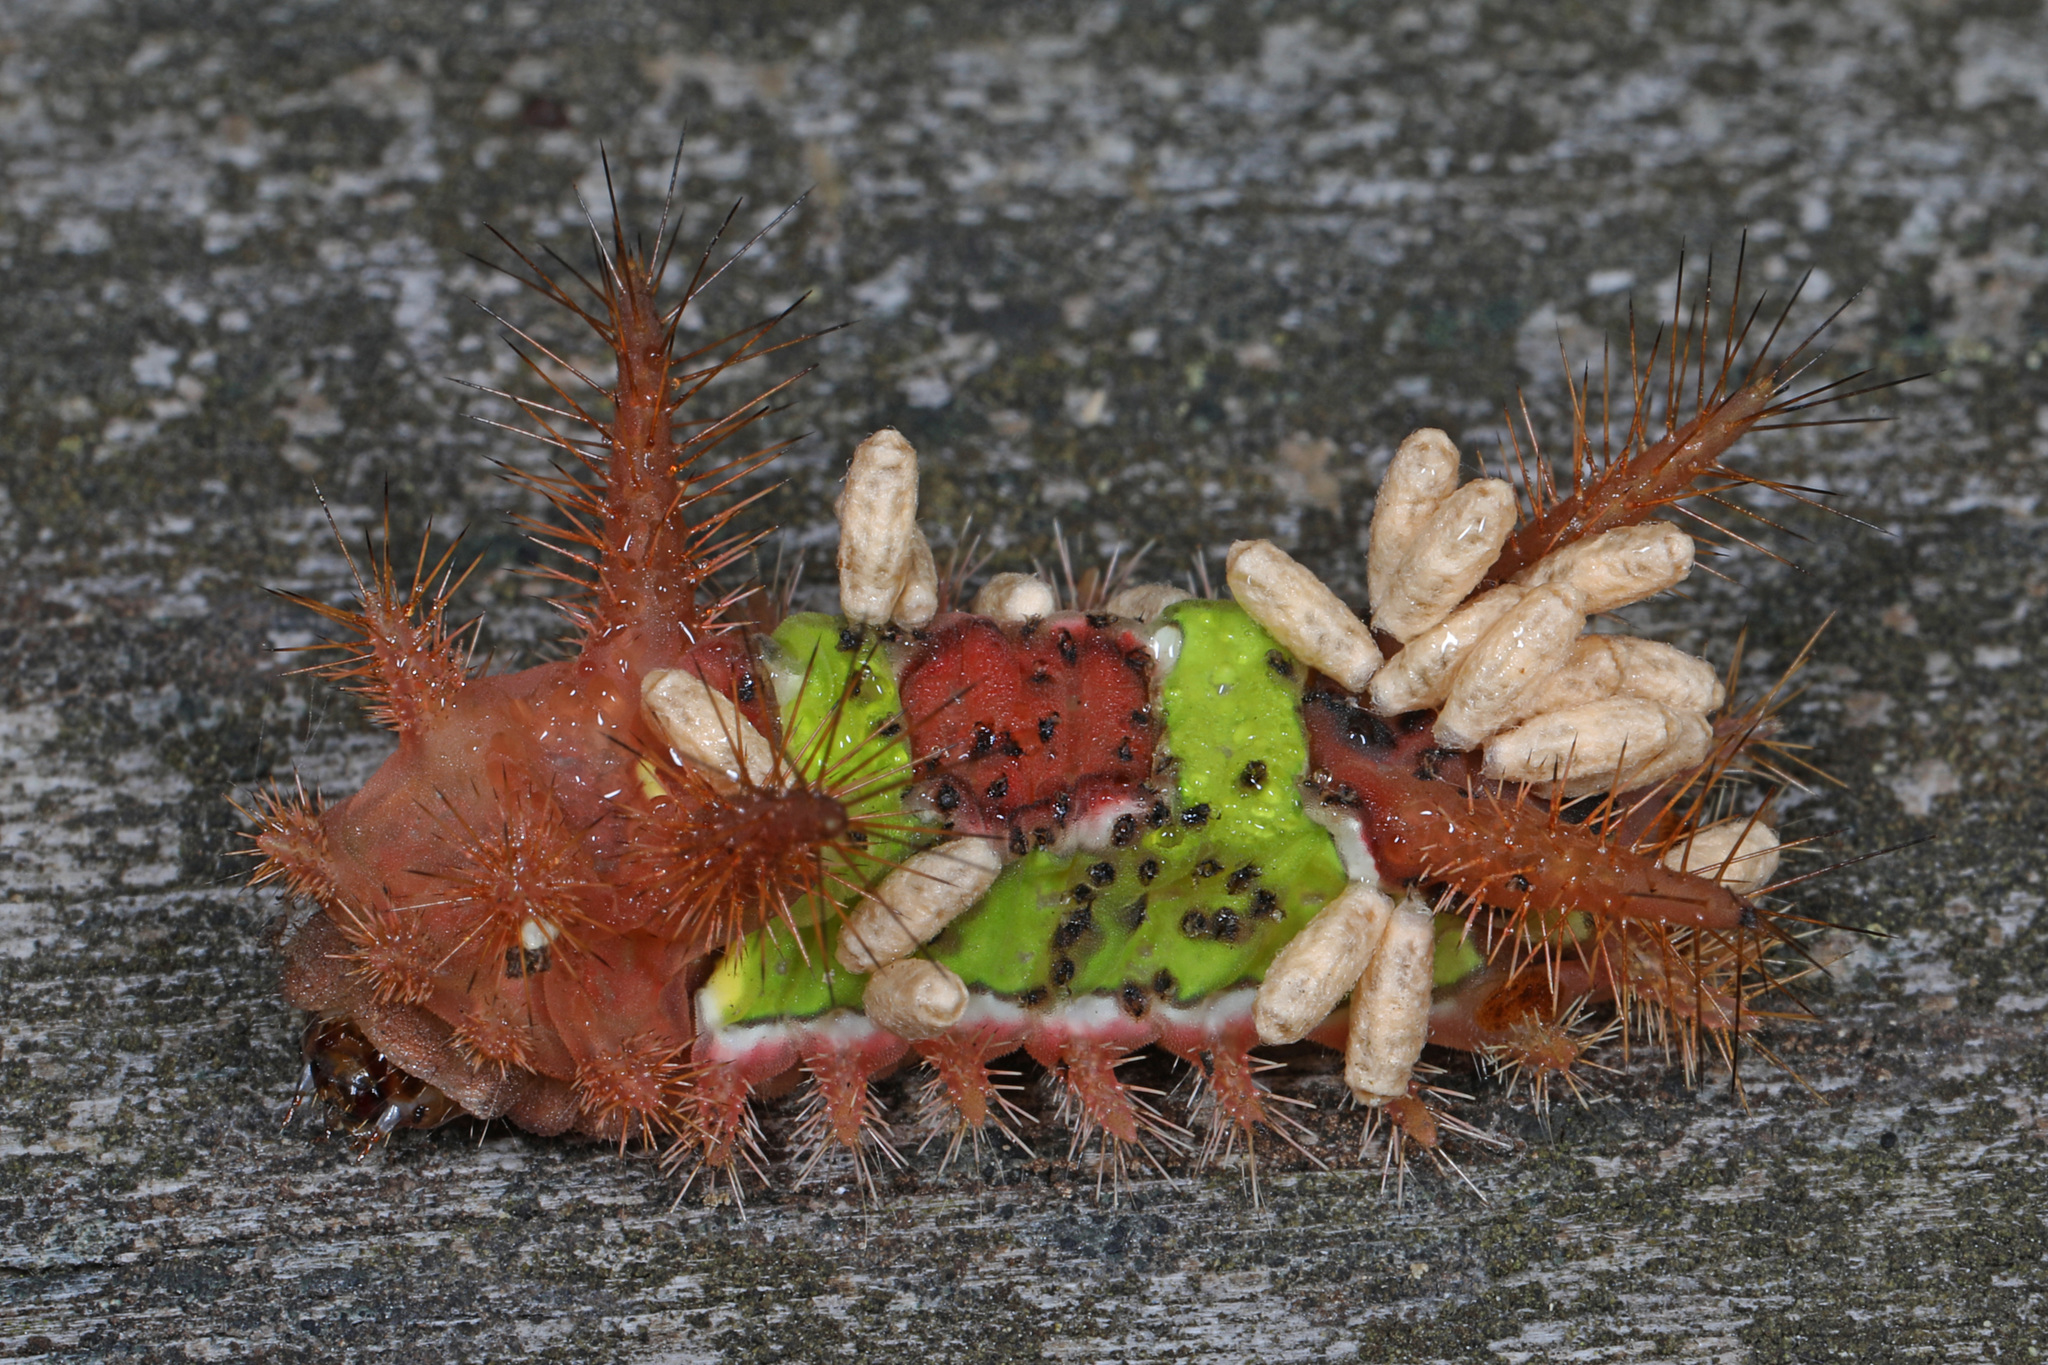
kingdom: Animalia
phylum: Arthropoda
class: Insecta
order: Lepidoptera
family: Limacodidae
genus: Acharia
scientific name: Acharia stimulea
